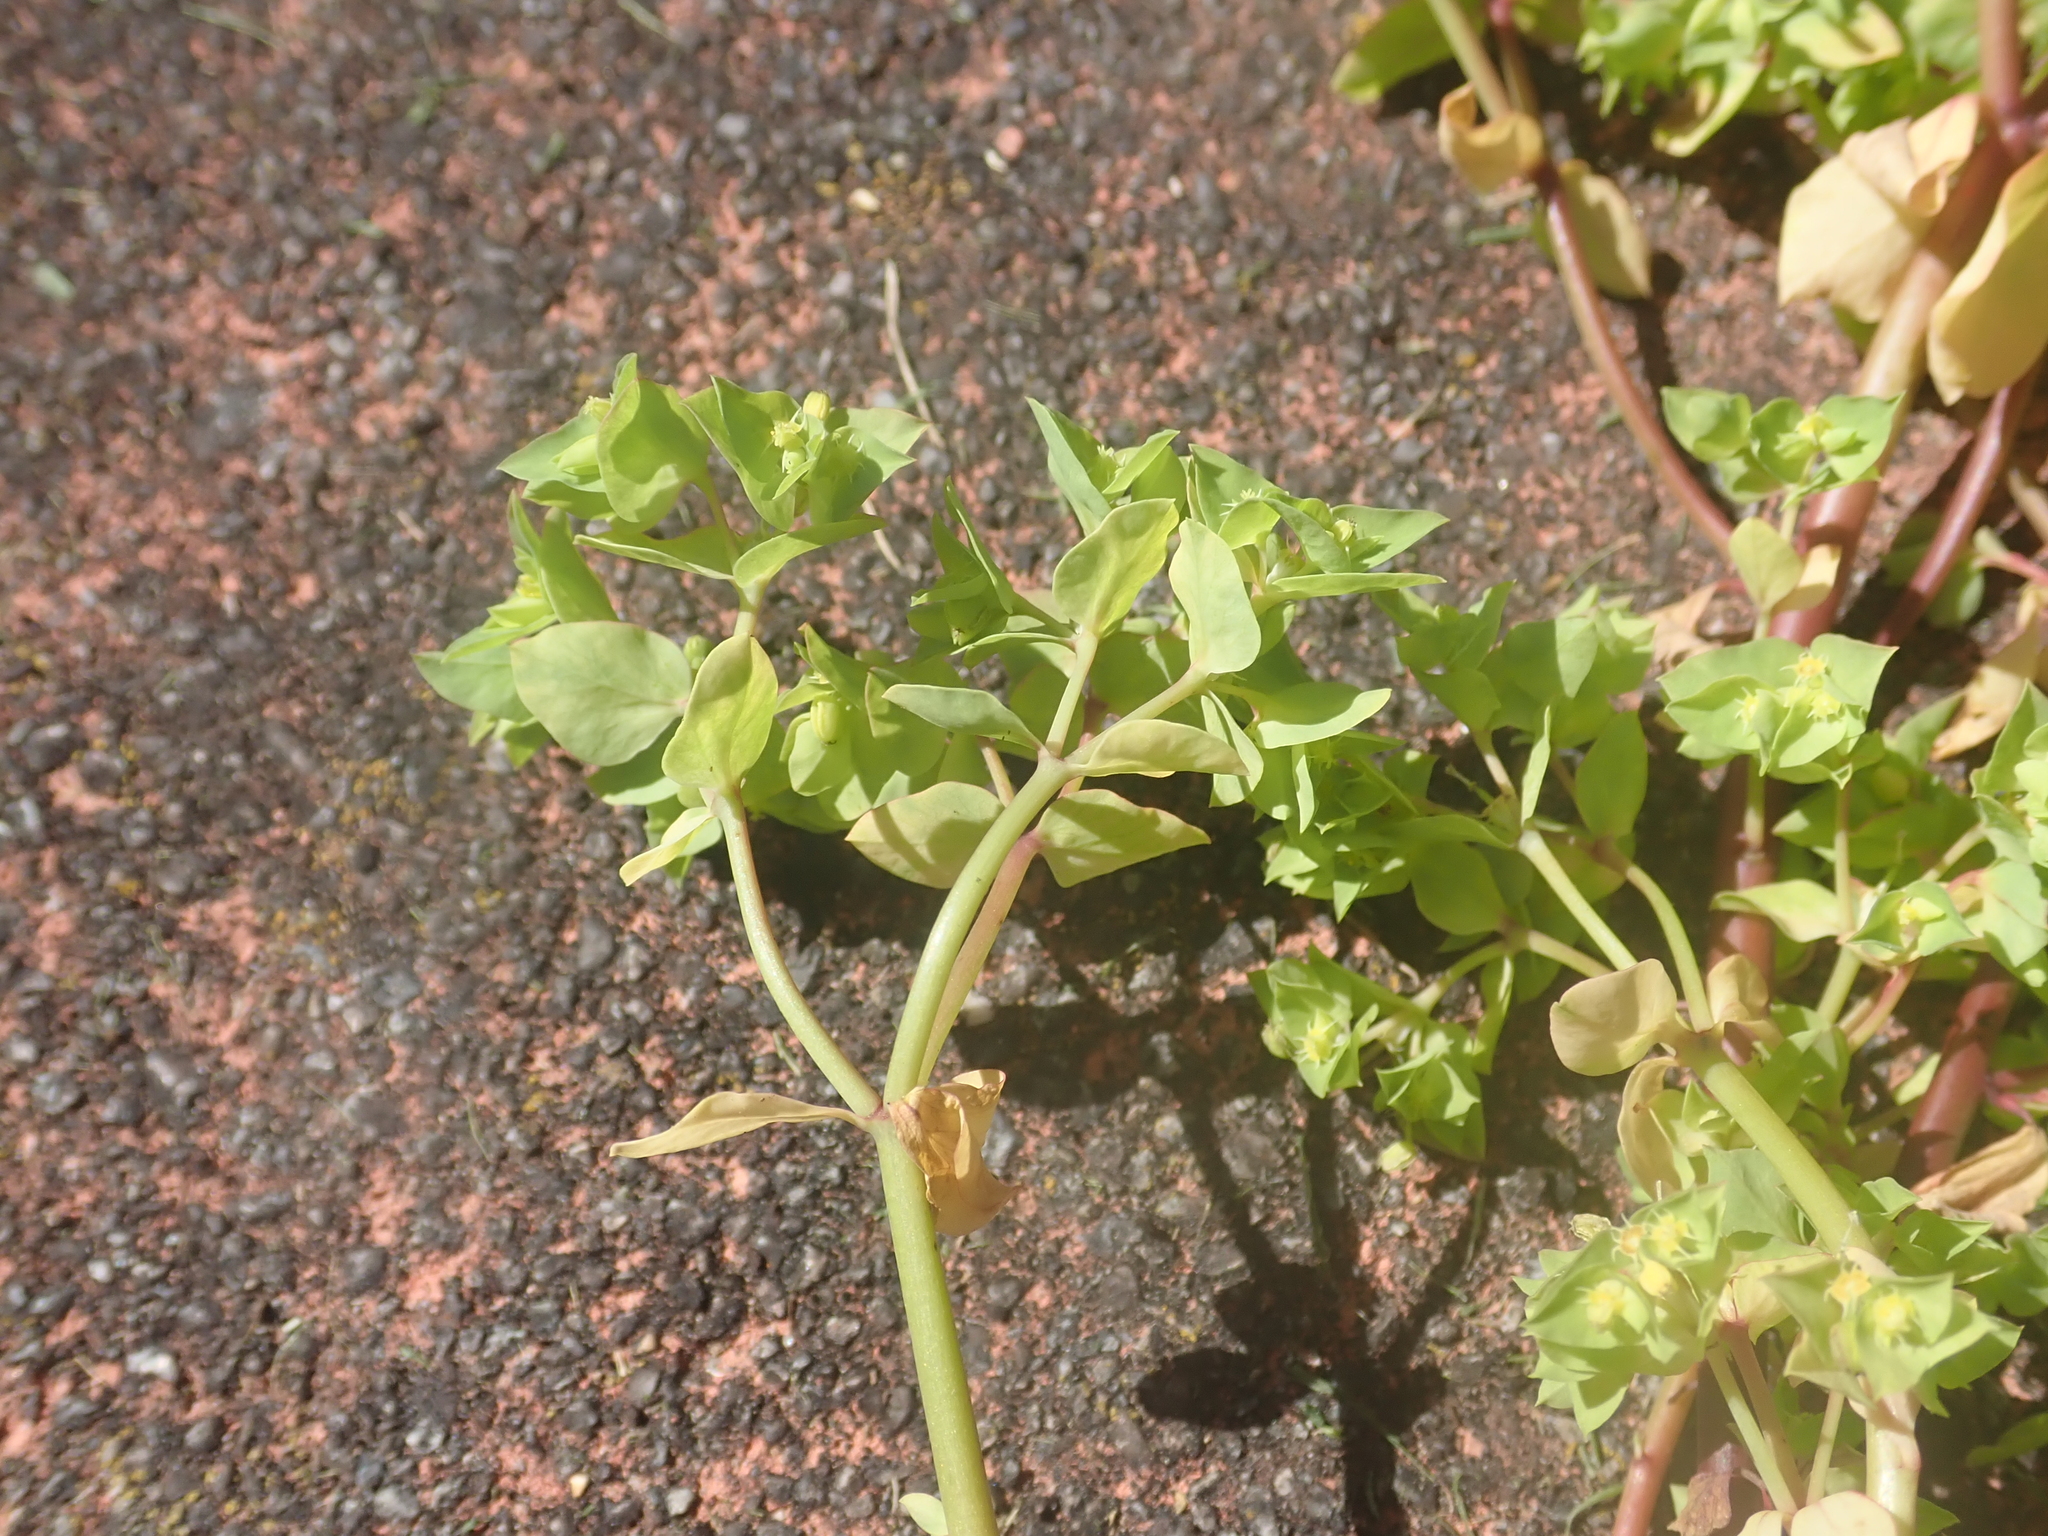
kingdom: Plantae
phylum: Tracheophyta
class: Magnoliopsida
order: Malpighiales
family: Euphorbiaceae
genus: Euphorbia
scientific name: Euphorbia peplus
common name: Petty spurge
